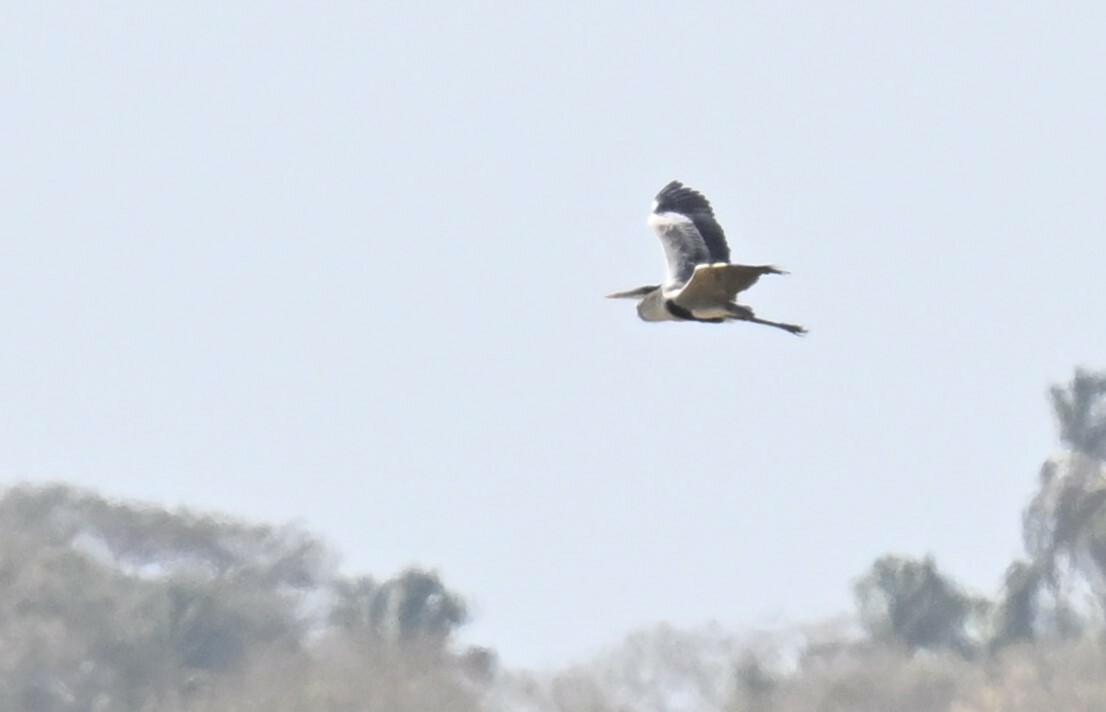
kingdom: Animalia
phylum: Chordata
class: Aves
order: Pelecaniformes
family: Ardeidae
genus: Ardea
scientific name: Ardea cocoi
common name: Cocoi heron
